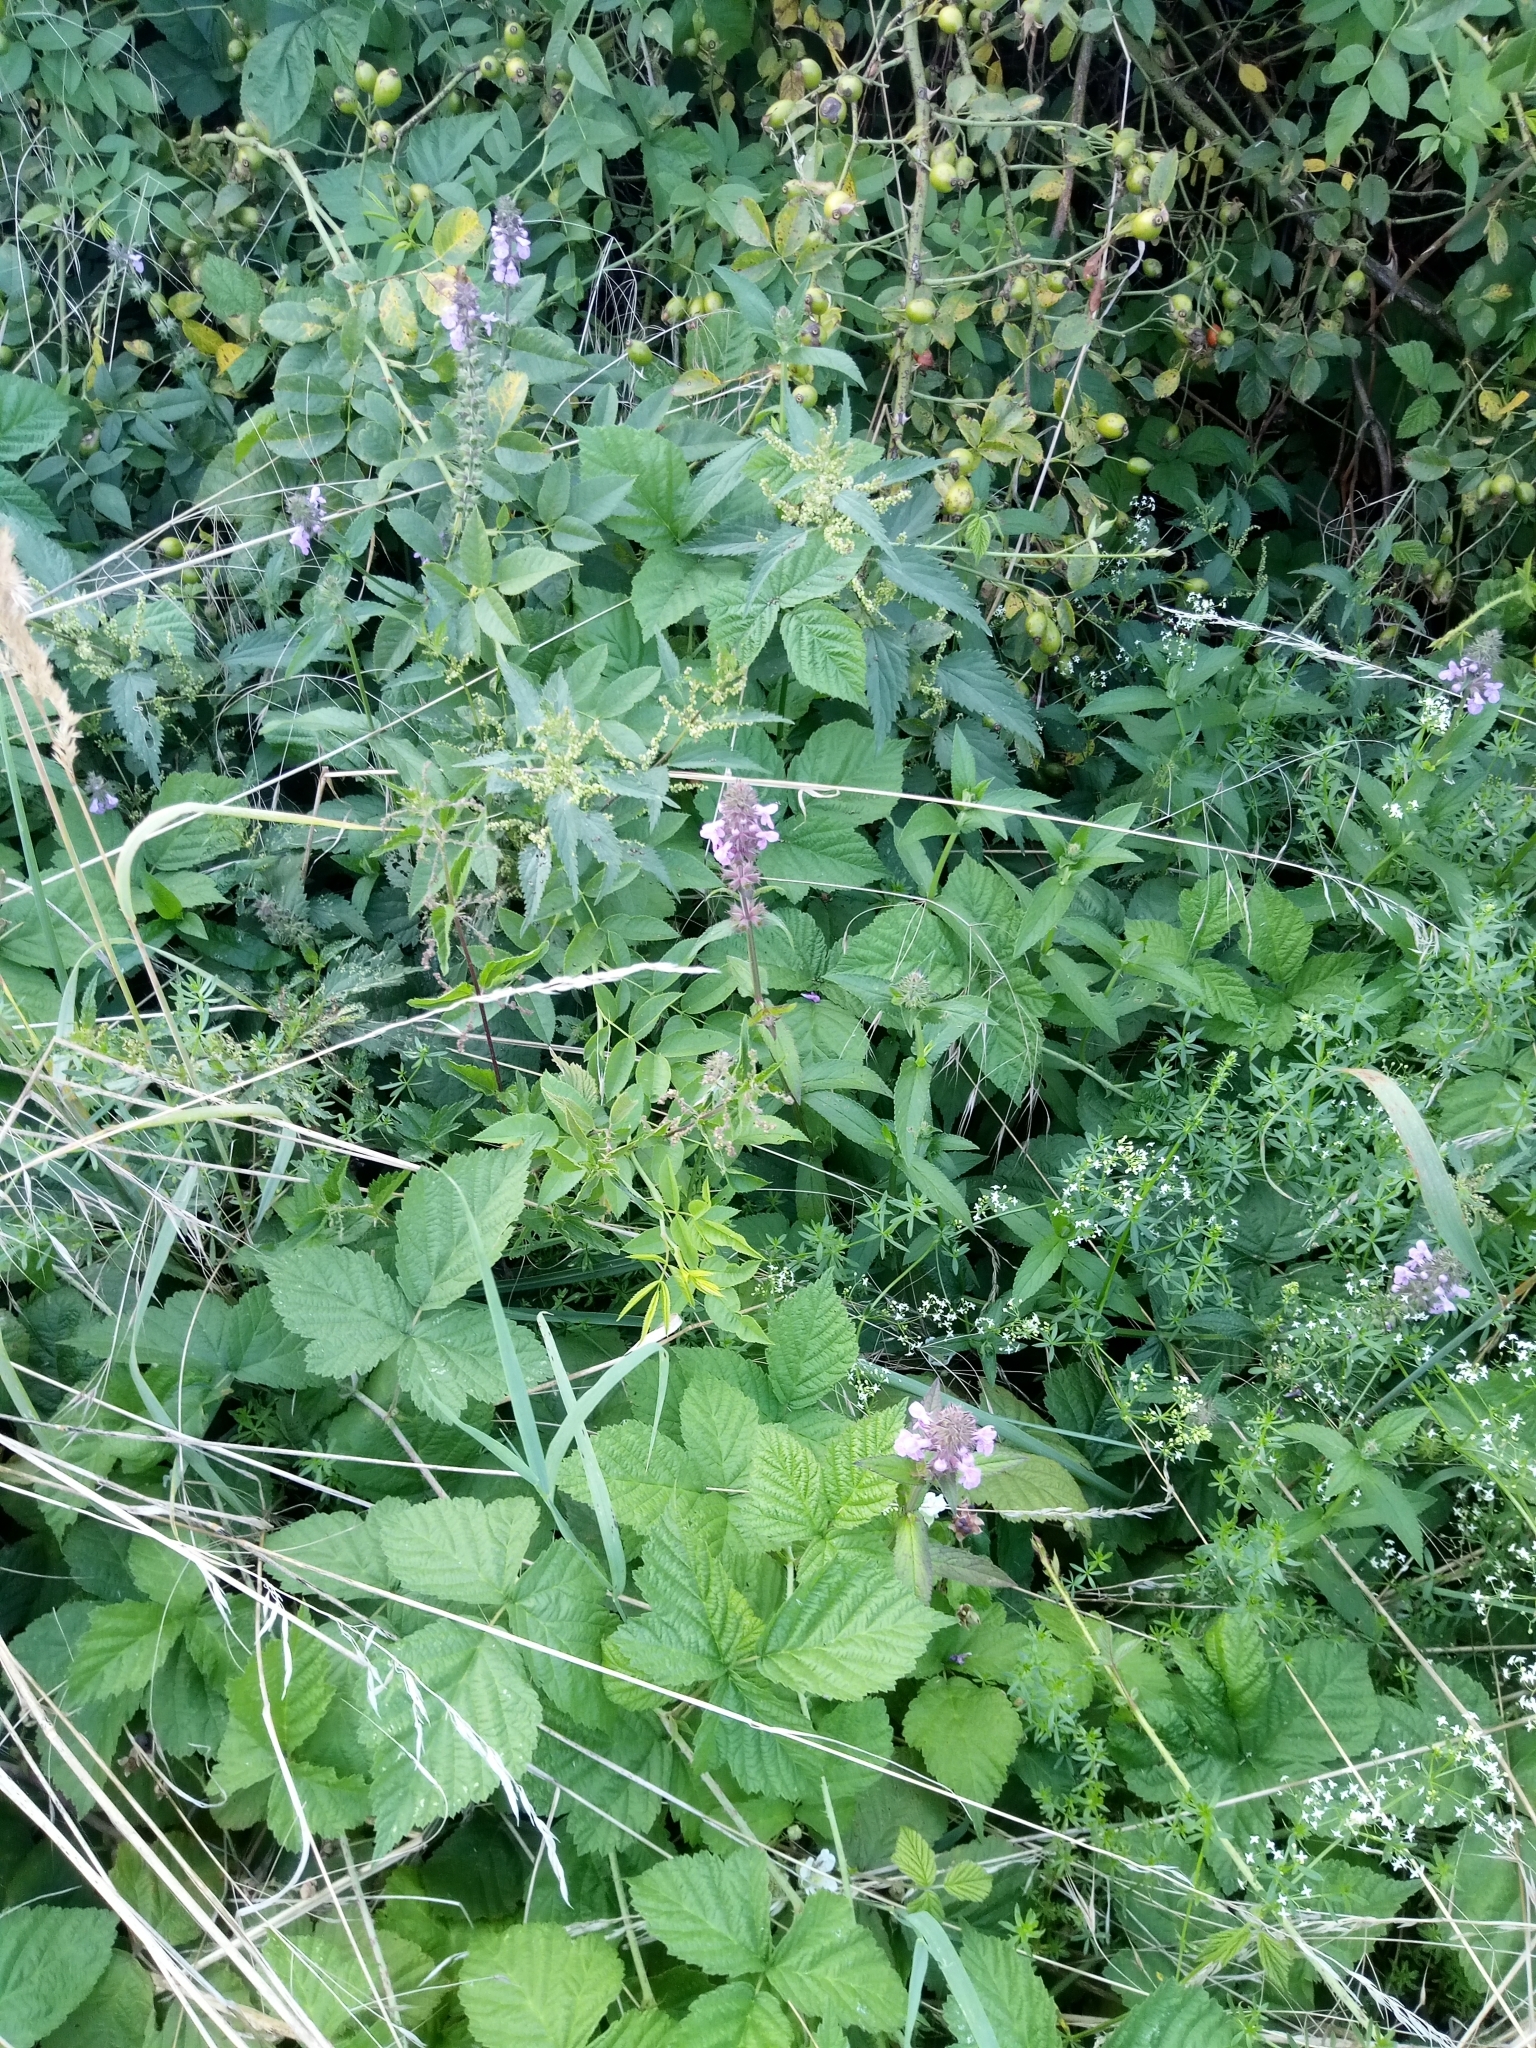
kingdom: Plantae
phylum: Tracheophyta
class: Magnoliopsida
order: Lamiales
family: Lamiaceae
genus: Stachys
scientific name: Stachys palustris
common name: Marsh woundwort
